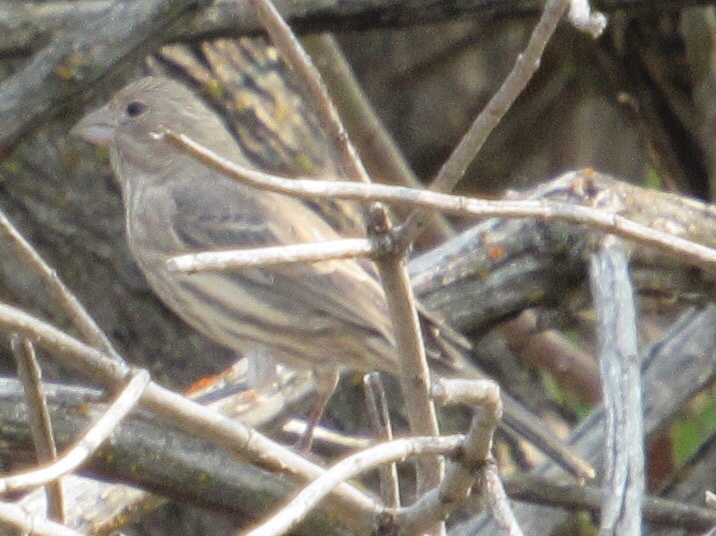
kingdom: Animalia
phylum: Chordata
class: Aves
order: Passeriformes
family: Fringillidae
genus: Haemorhous
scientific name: Haemorhous mexicanus
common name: House finch
